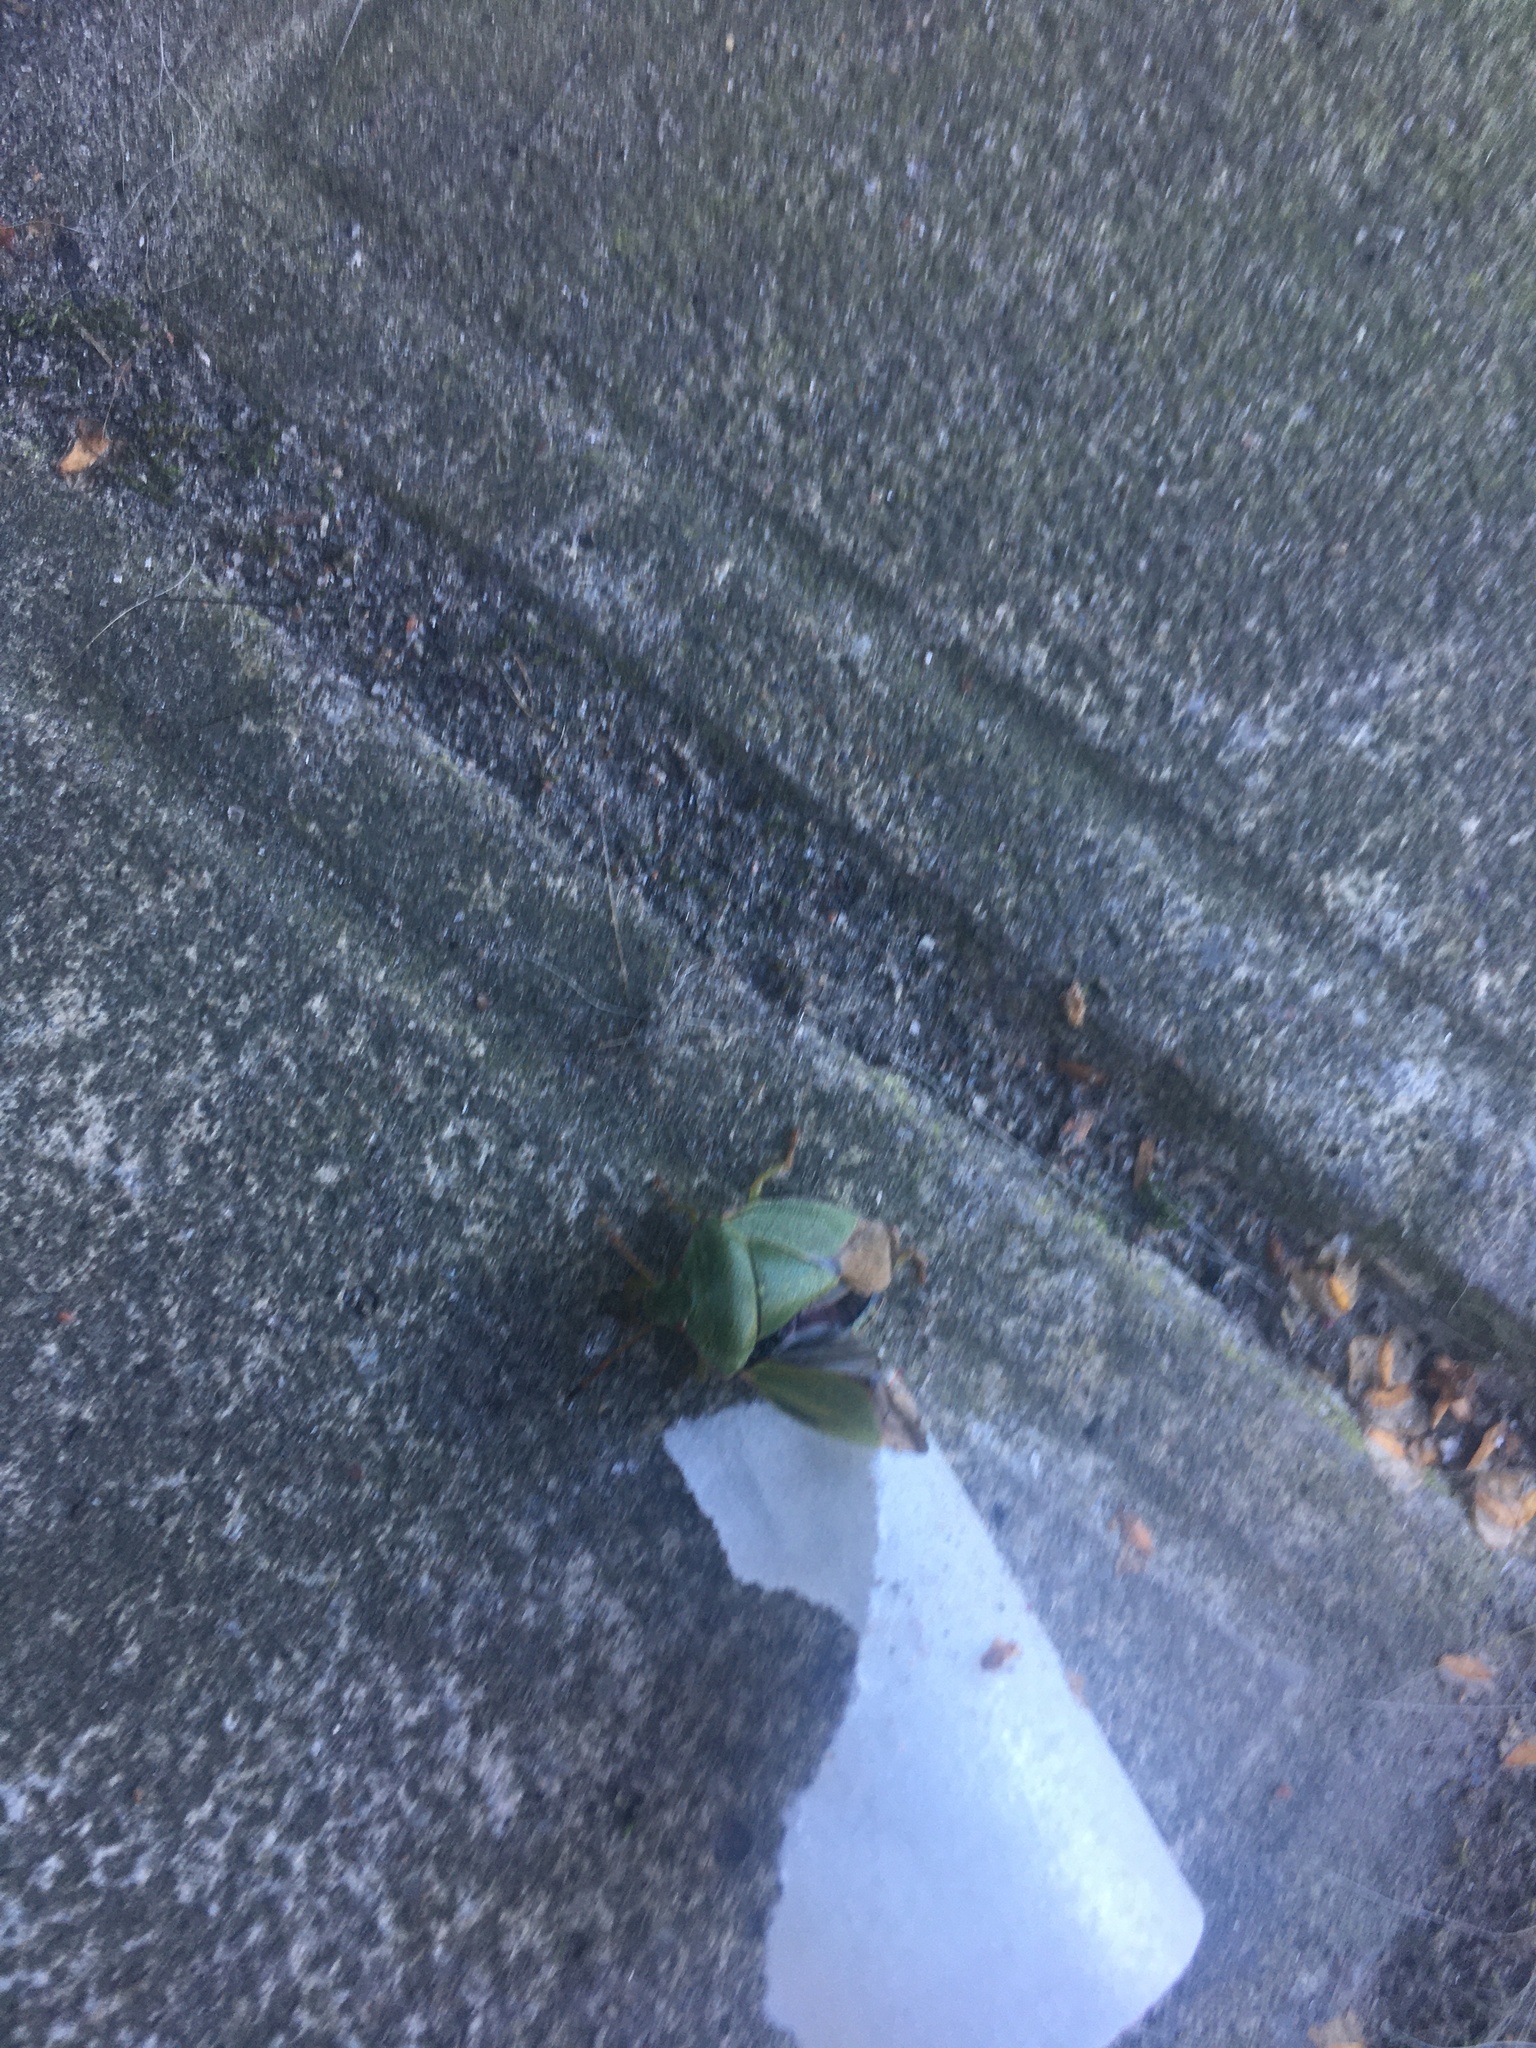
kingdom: Animalia
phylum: Arthropoda
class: Insecta
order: Hemiptera
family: Pentatomidae
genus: Palomena
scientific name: Palomena prasina
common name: Green shieldbug
